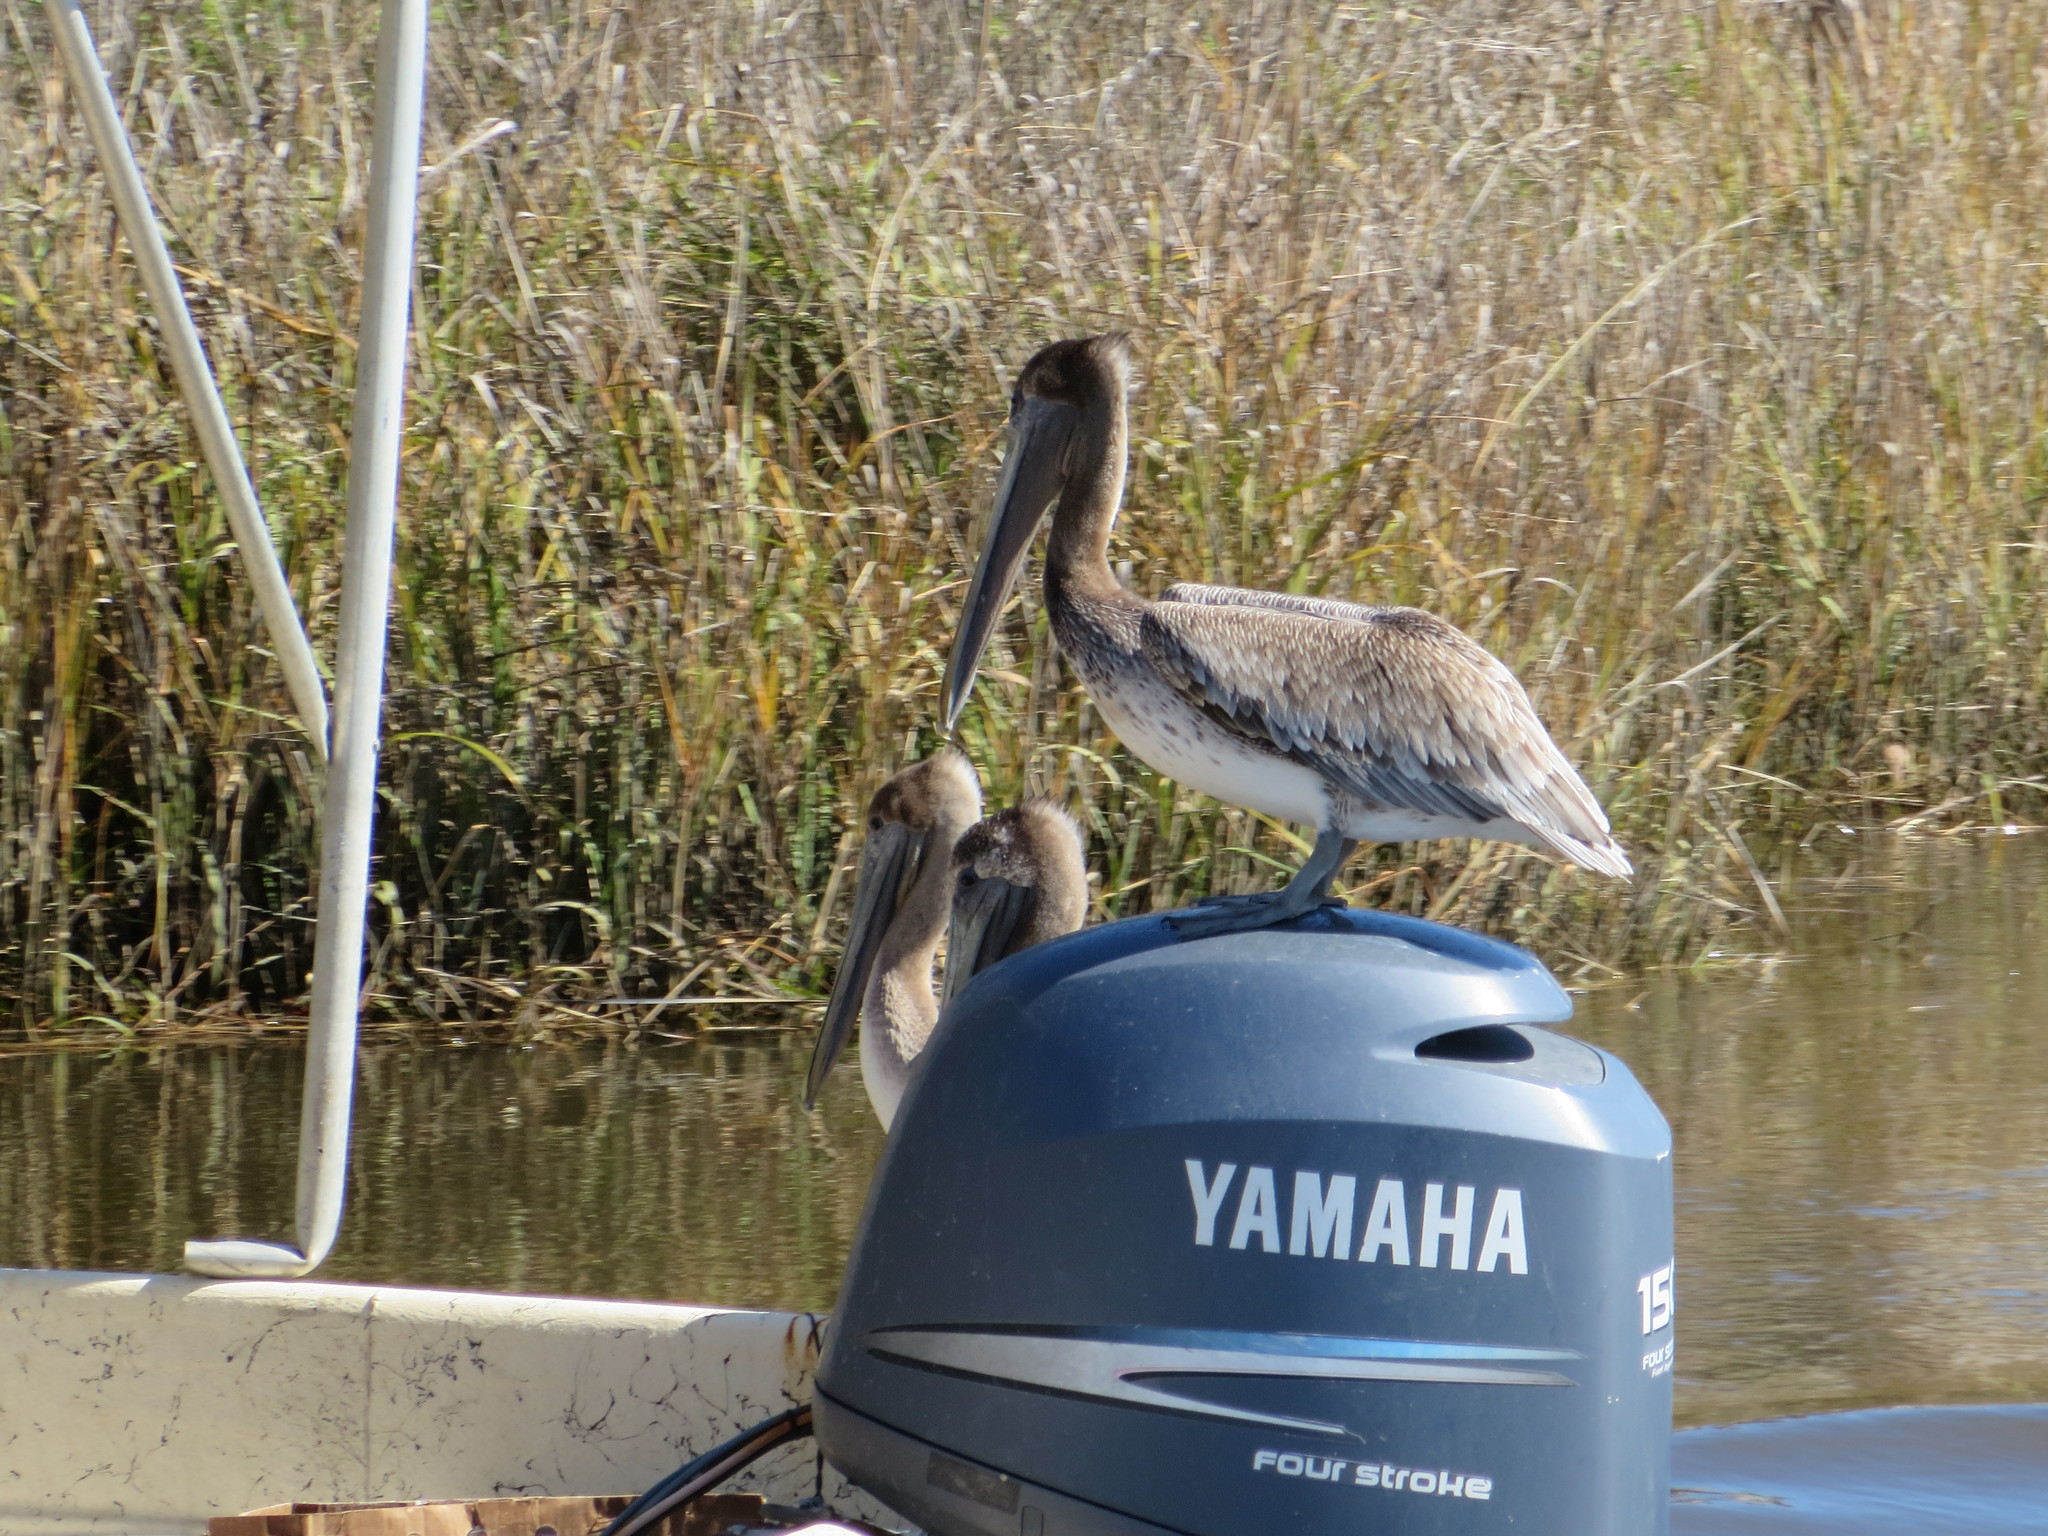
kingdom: Animalia
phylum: Chordata
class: Aves
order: Pelecaniformes
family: Pelecanidae
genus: Pelecanus
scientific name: Pelecanus occidentalis
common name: Brown pelican
